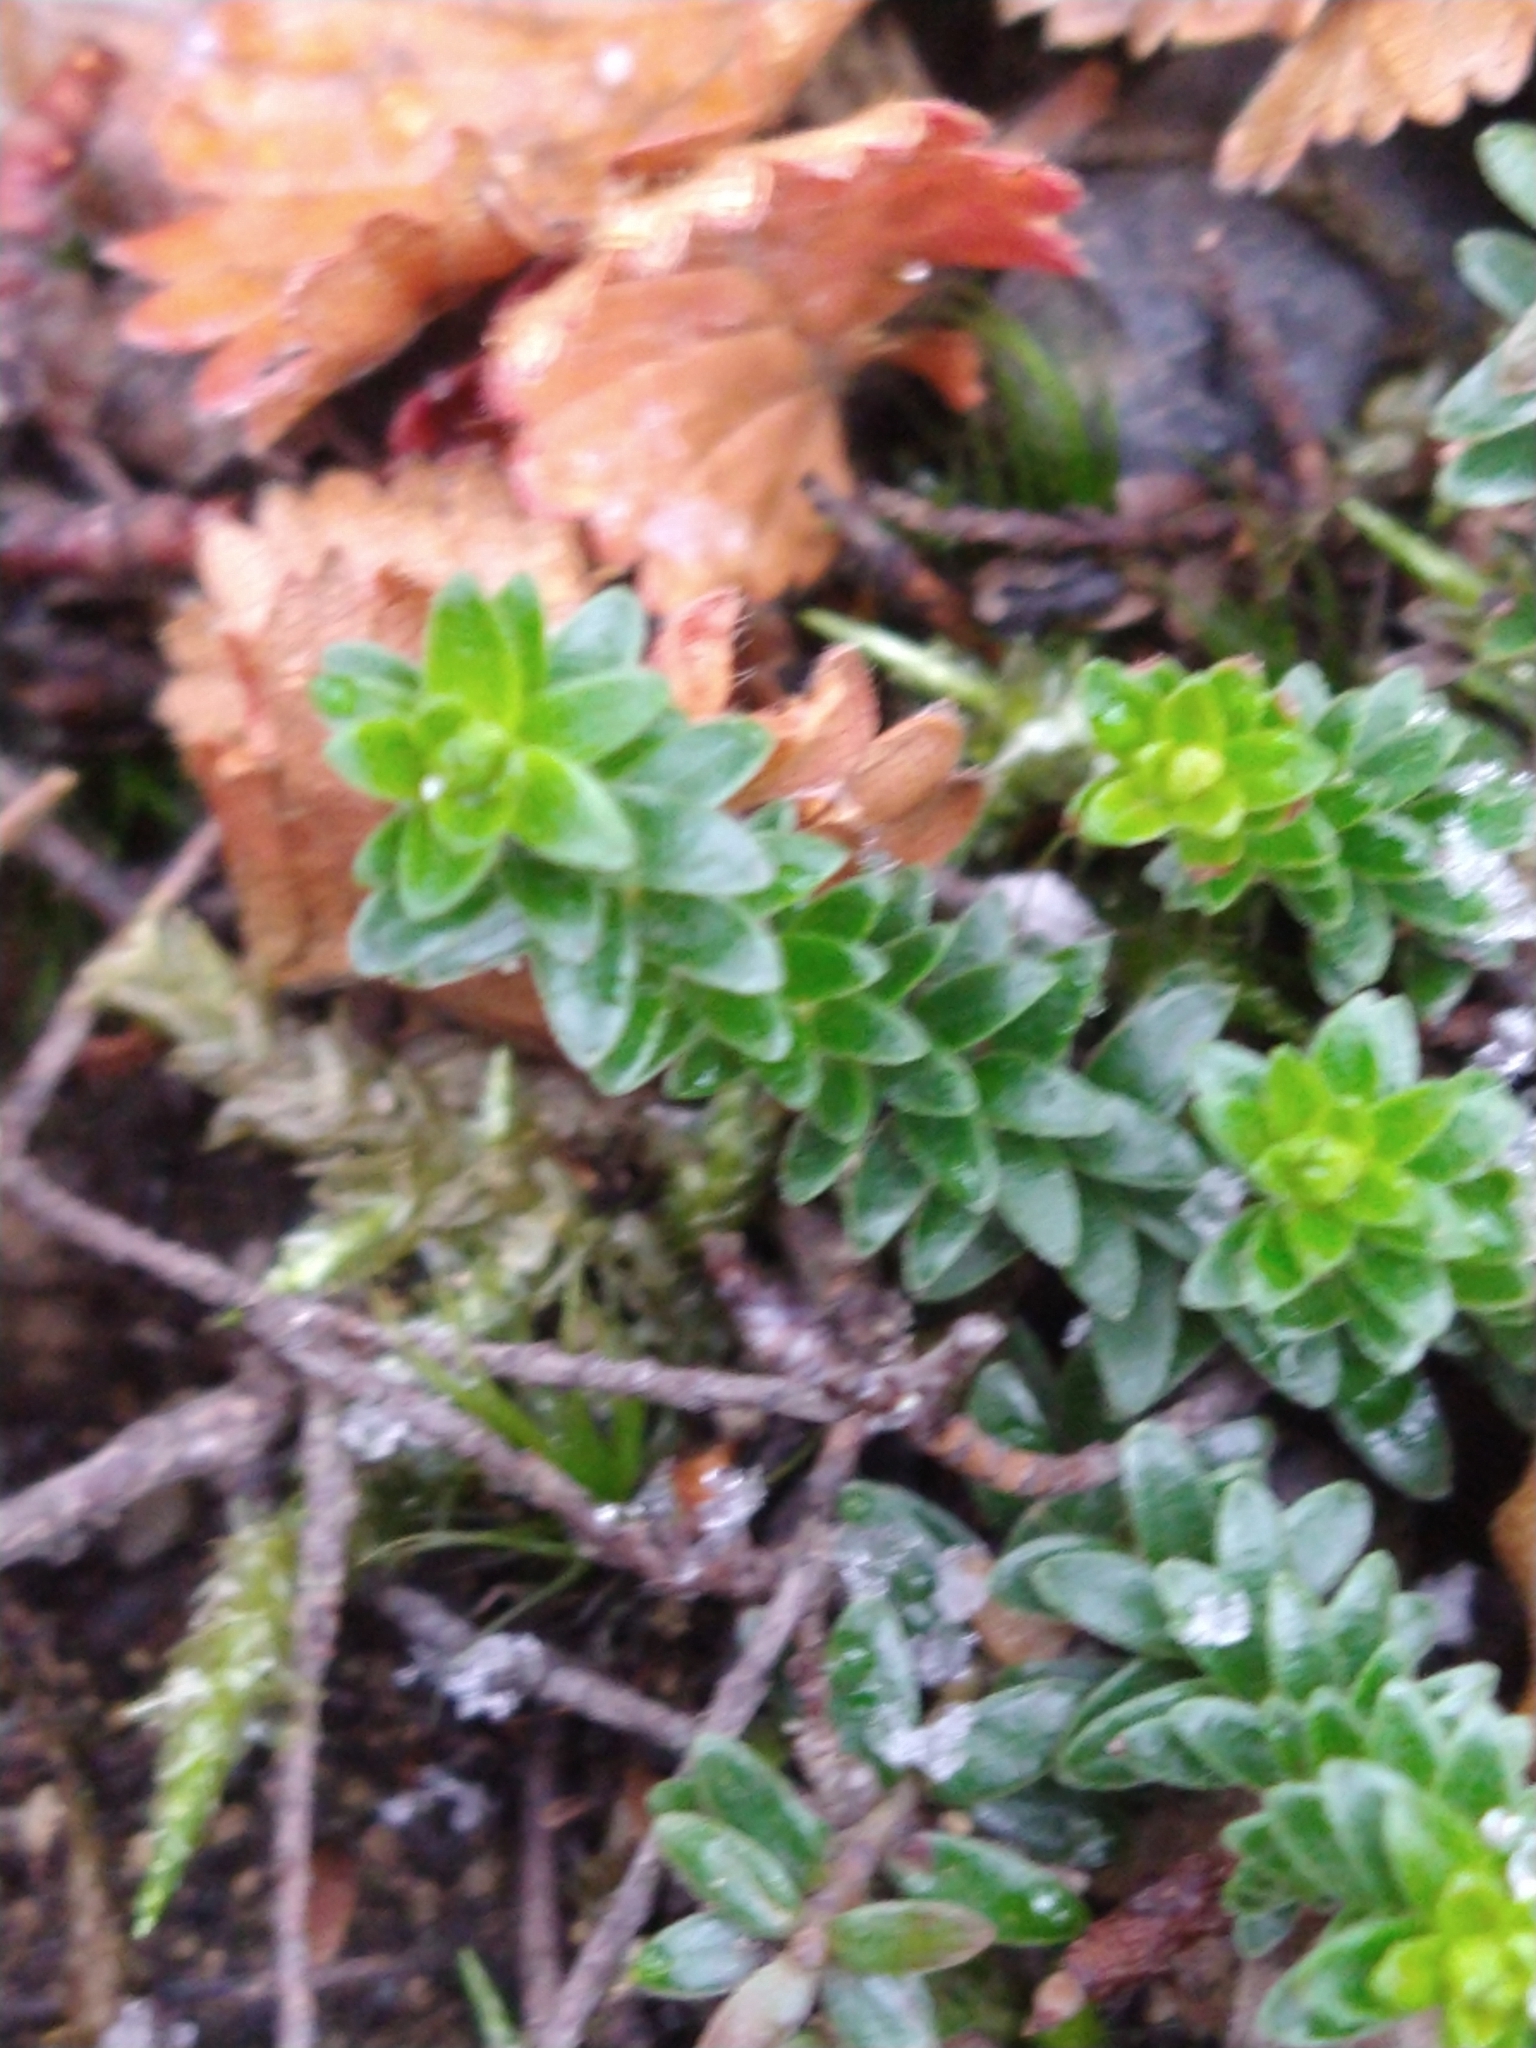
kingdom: Plantae
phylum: Tracheophyta
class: Magnoliopsida
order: Ericales
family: Ericaceae
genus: Empetrum
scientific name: Empetrum rubrum
